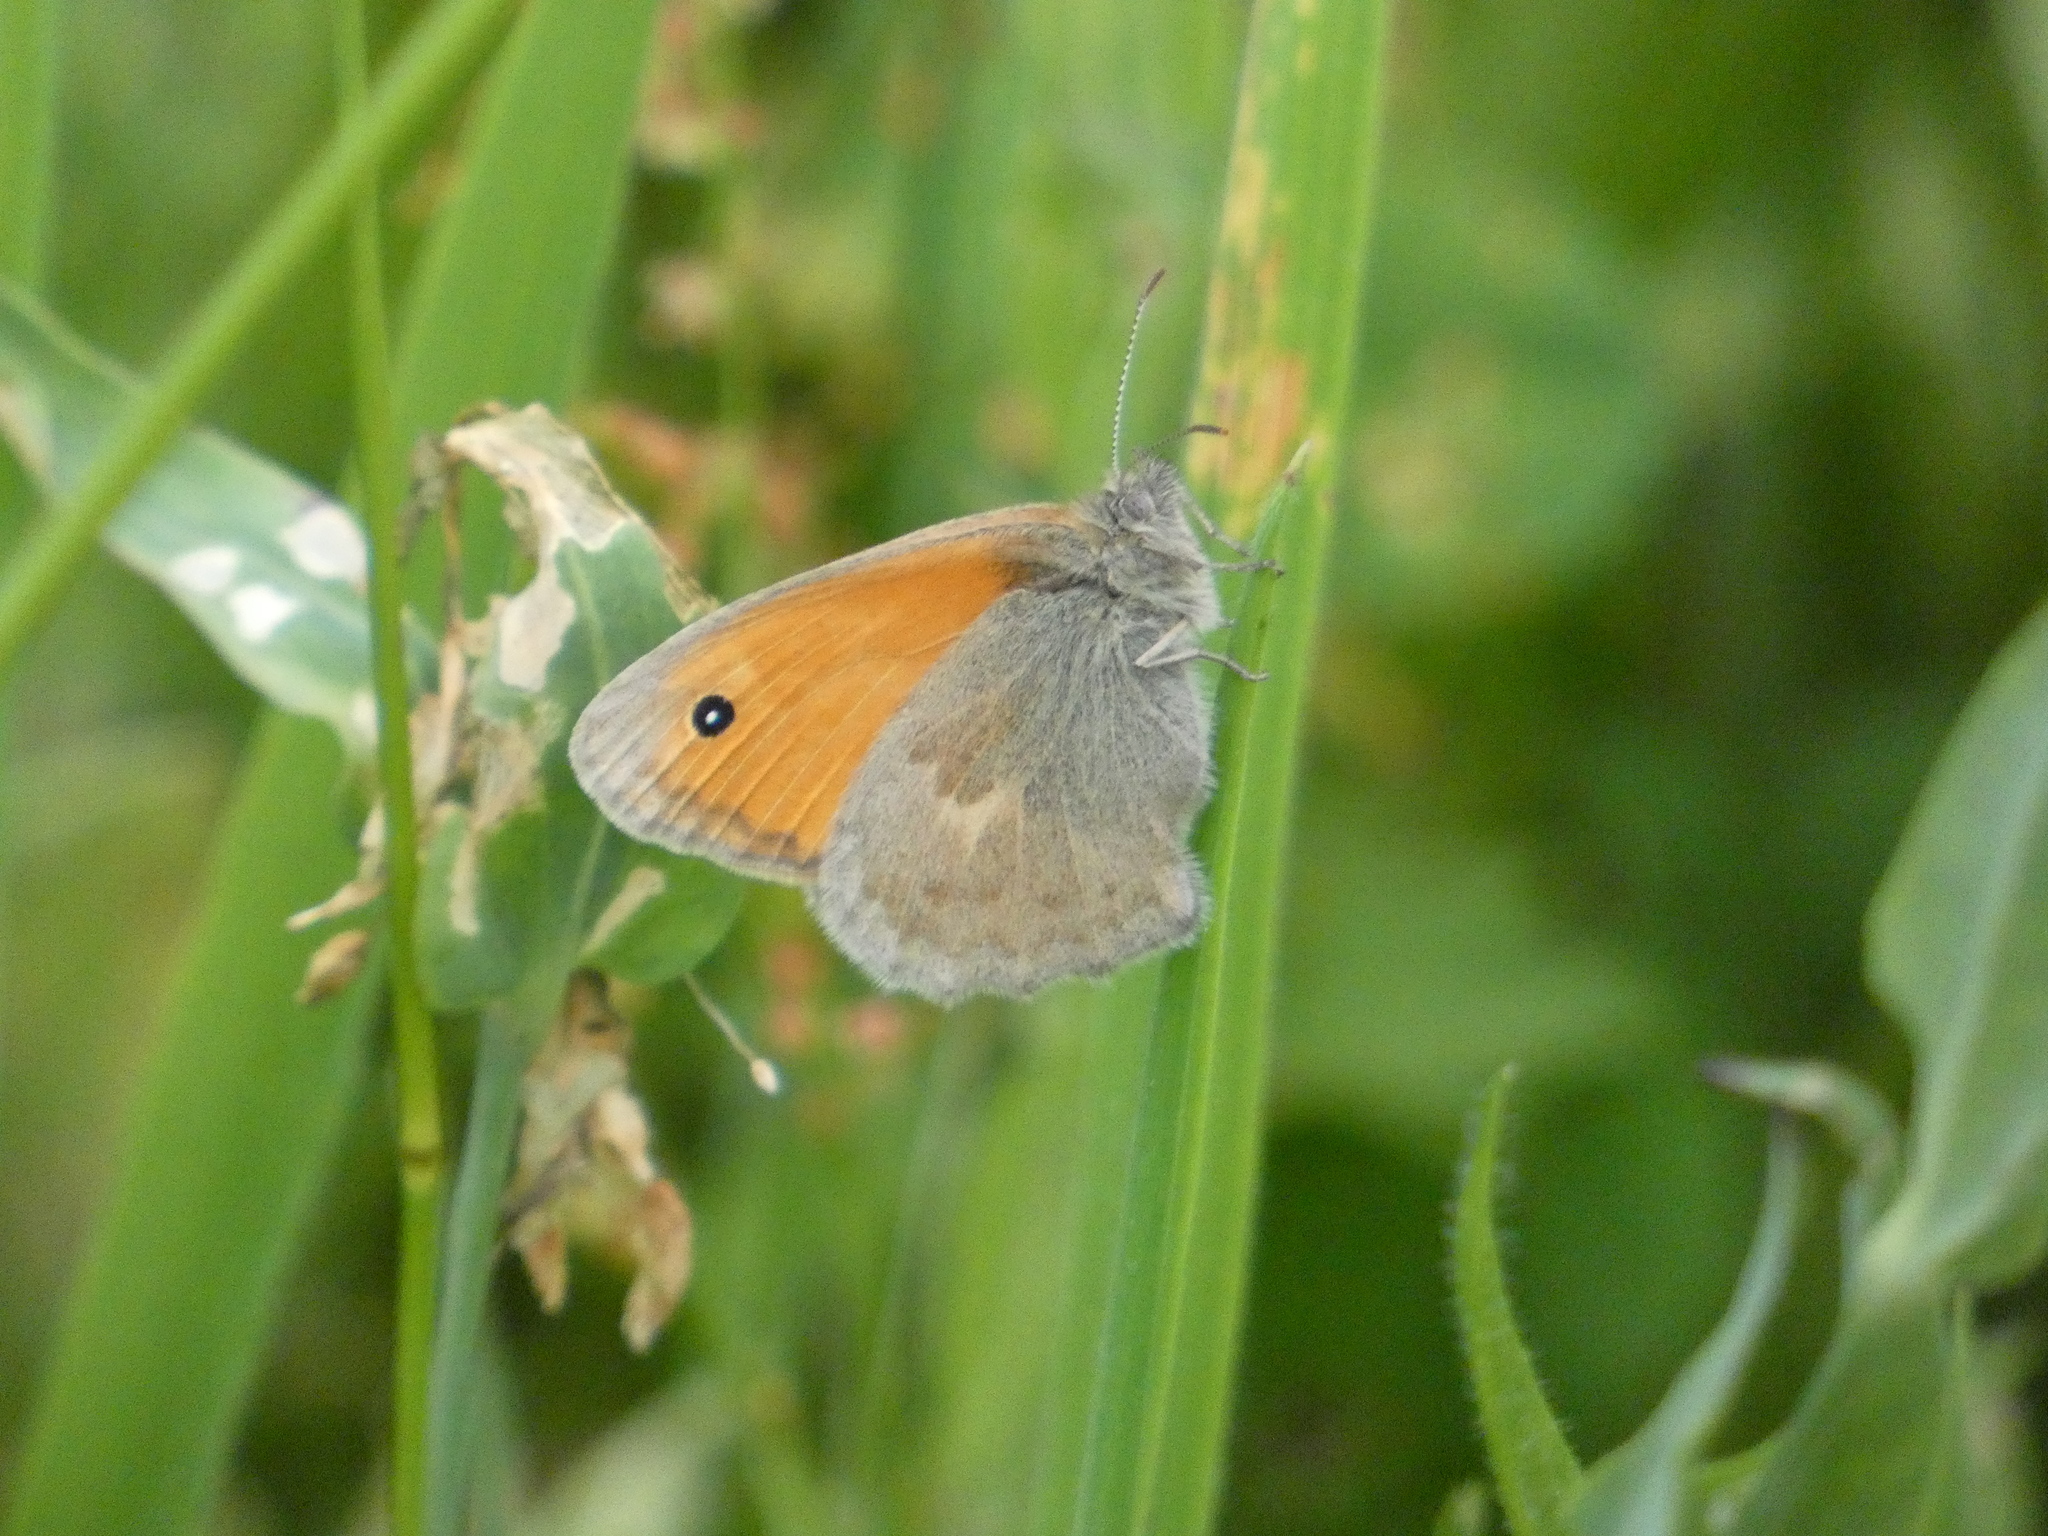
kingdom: Animalia
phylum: Arthropoda
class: Insecta
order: Lepidoptera
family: Nymphalidae
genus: Coenonympha
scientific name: Coenonympha pamphilus
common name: Small heath
